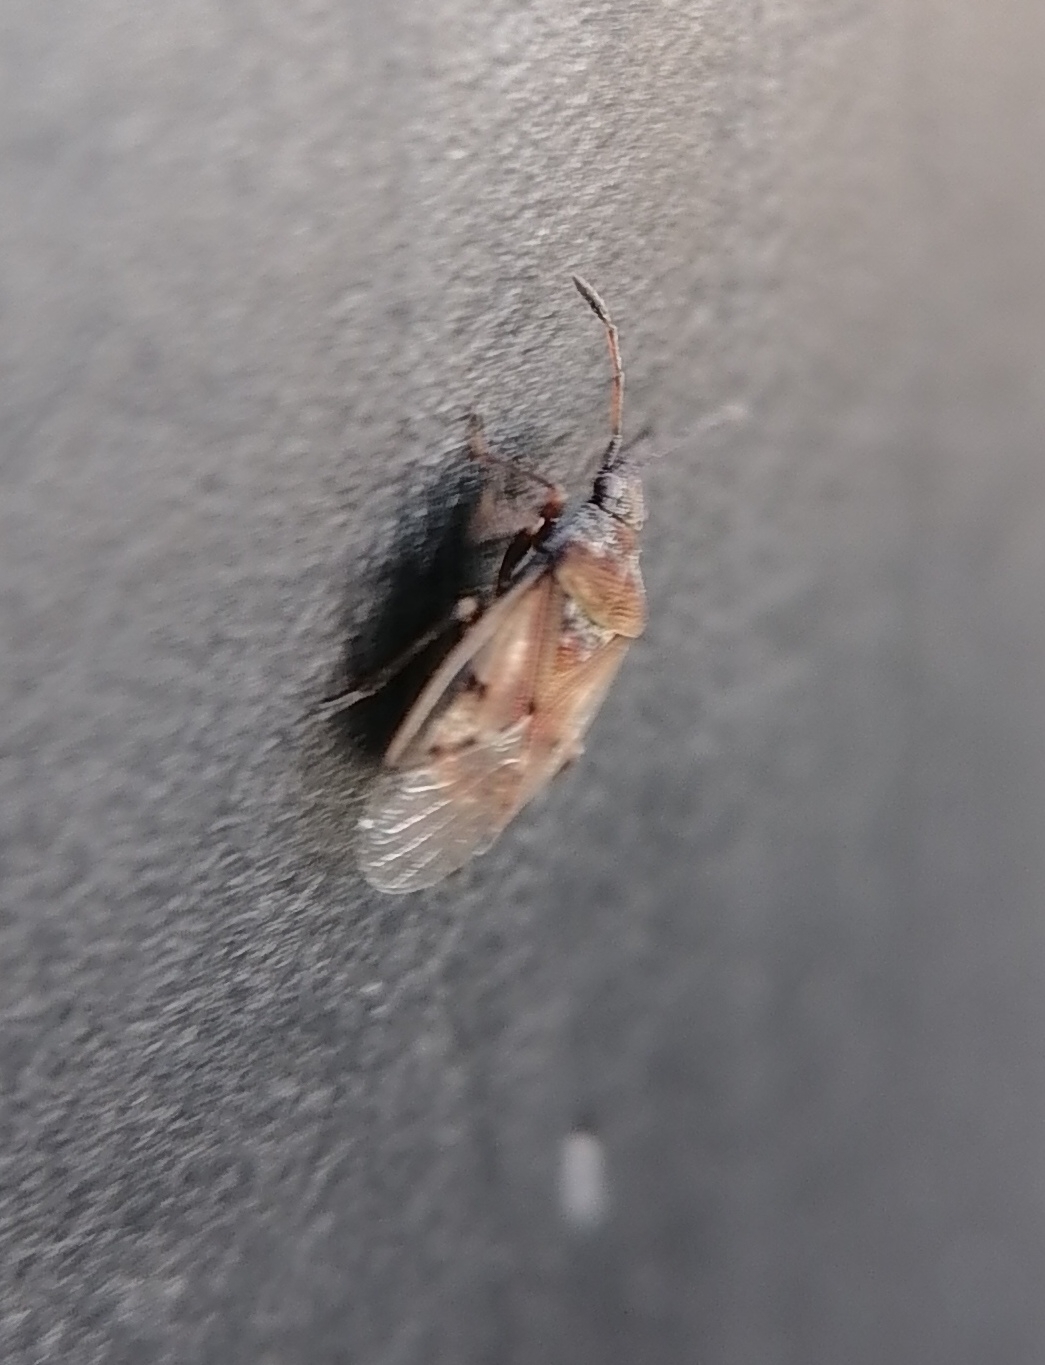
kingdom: Animalia
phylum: Arthropoda
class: Insecta
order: Hemiptera
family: Lygaeidae
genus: Kleidocerys
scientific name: Kleidocerys resedae
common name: Birch catkin bug
